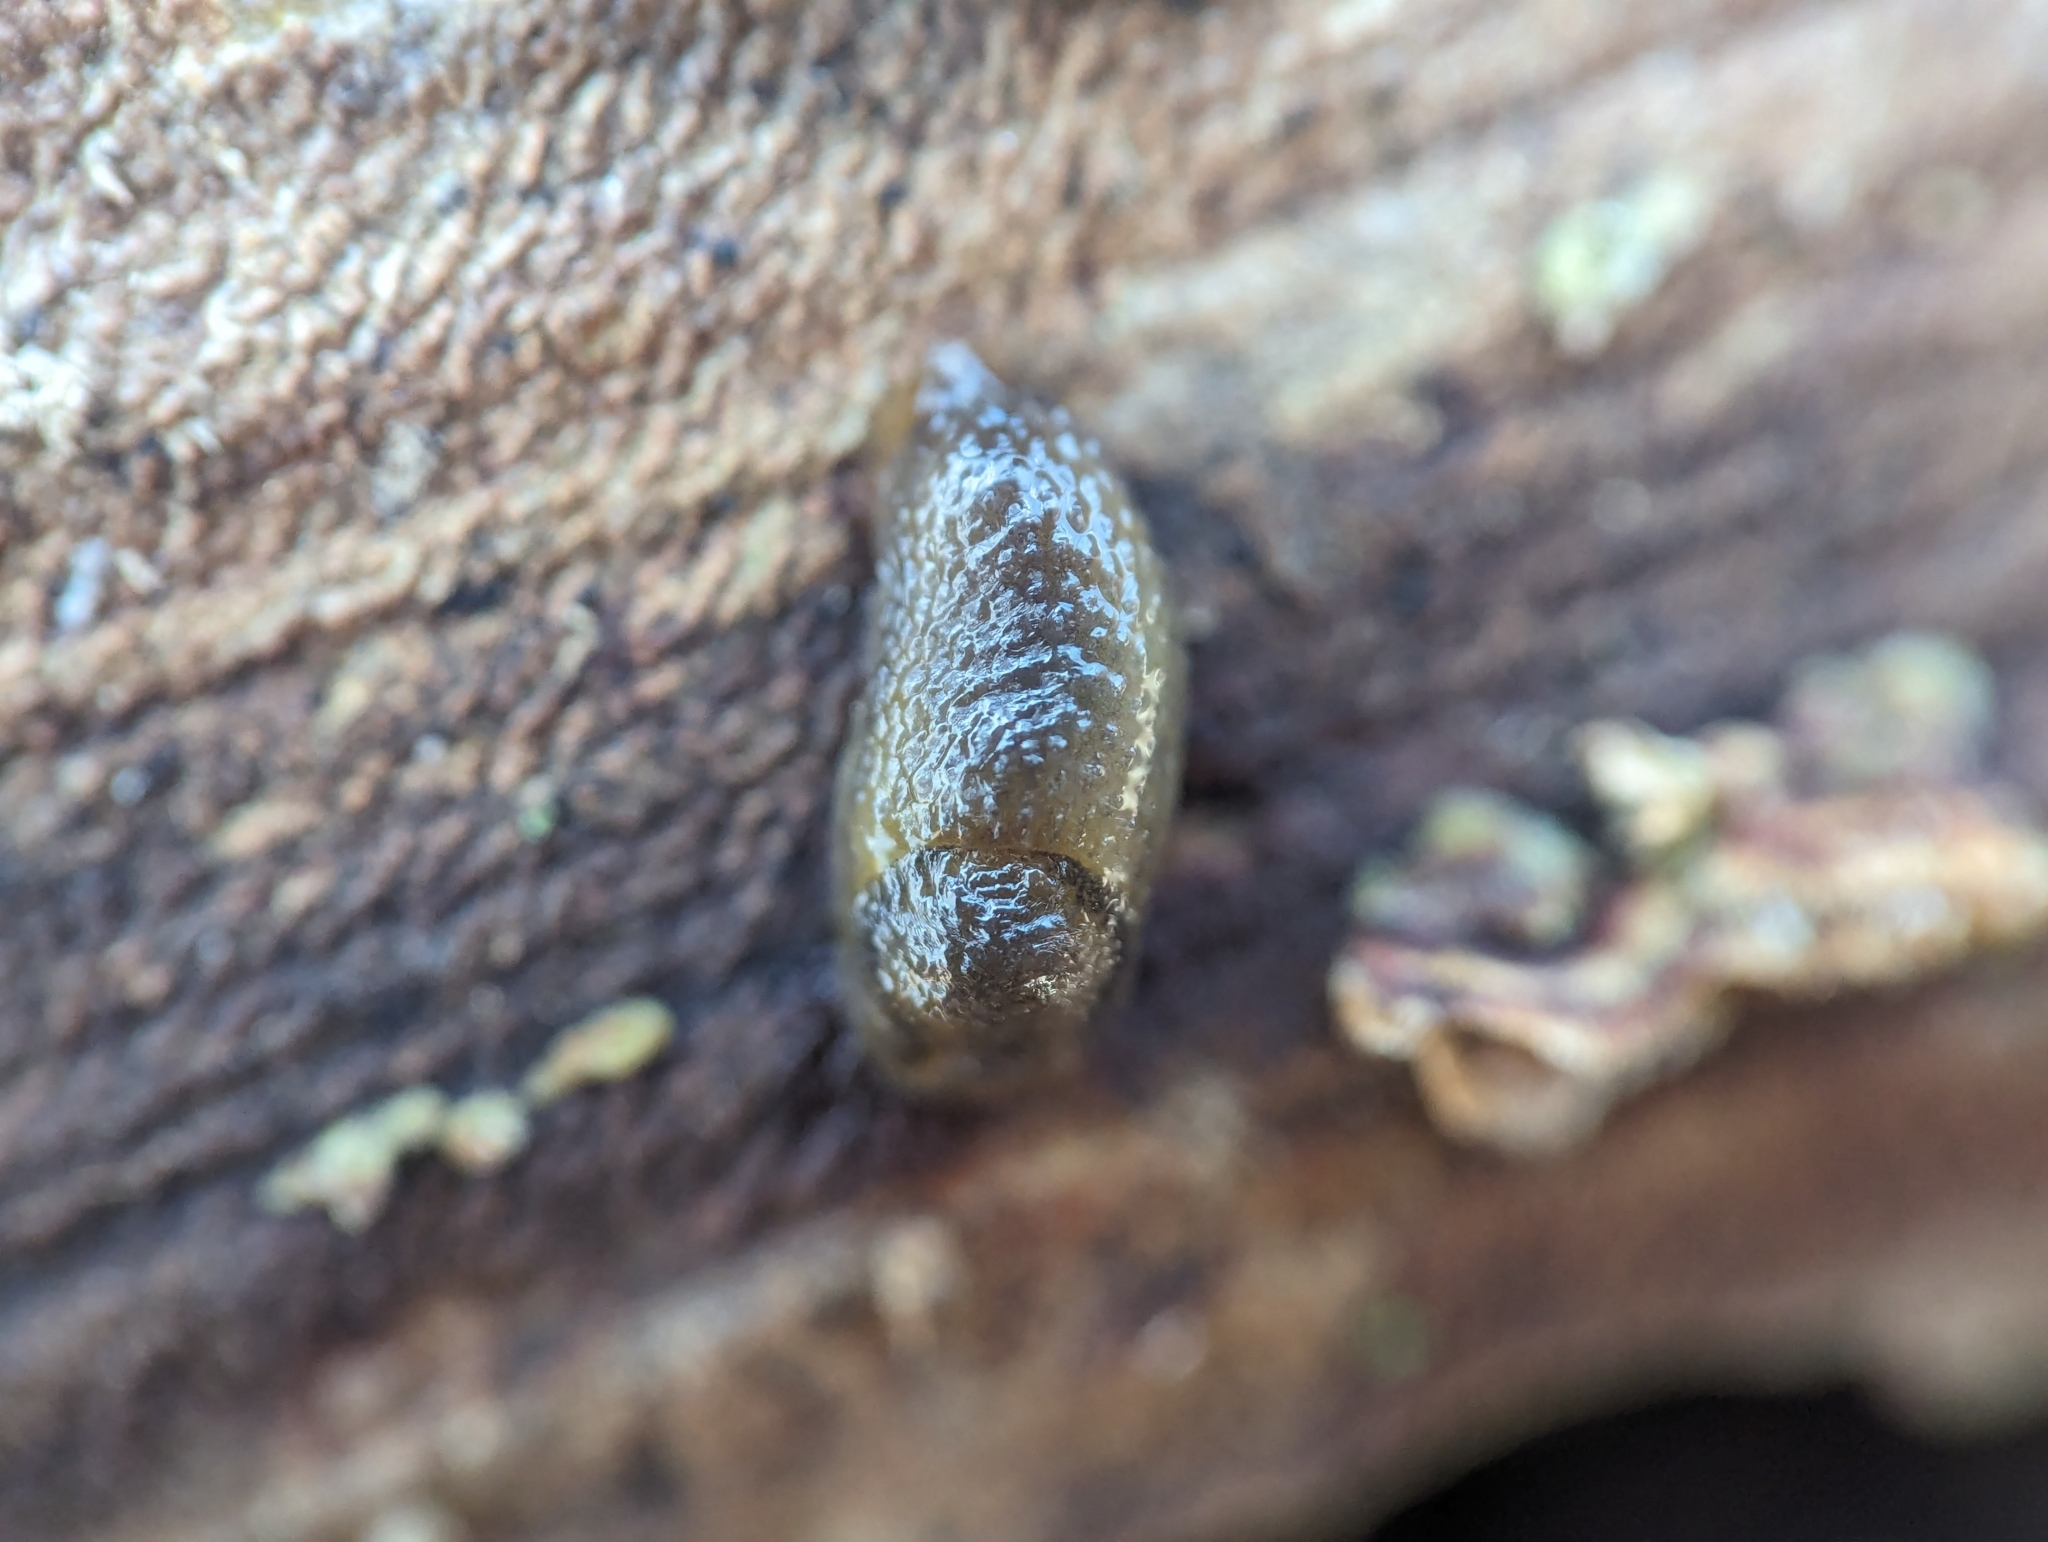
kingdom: Animalia
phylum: Mollusca
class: Gastropoda
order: Stylommatophora
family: Arionidae
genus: Arion
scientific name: Arion intermedius
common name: Hedgehog slug
